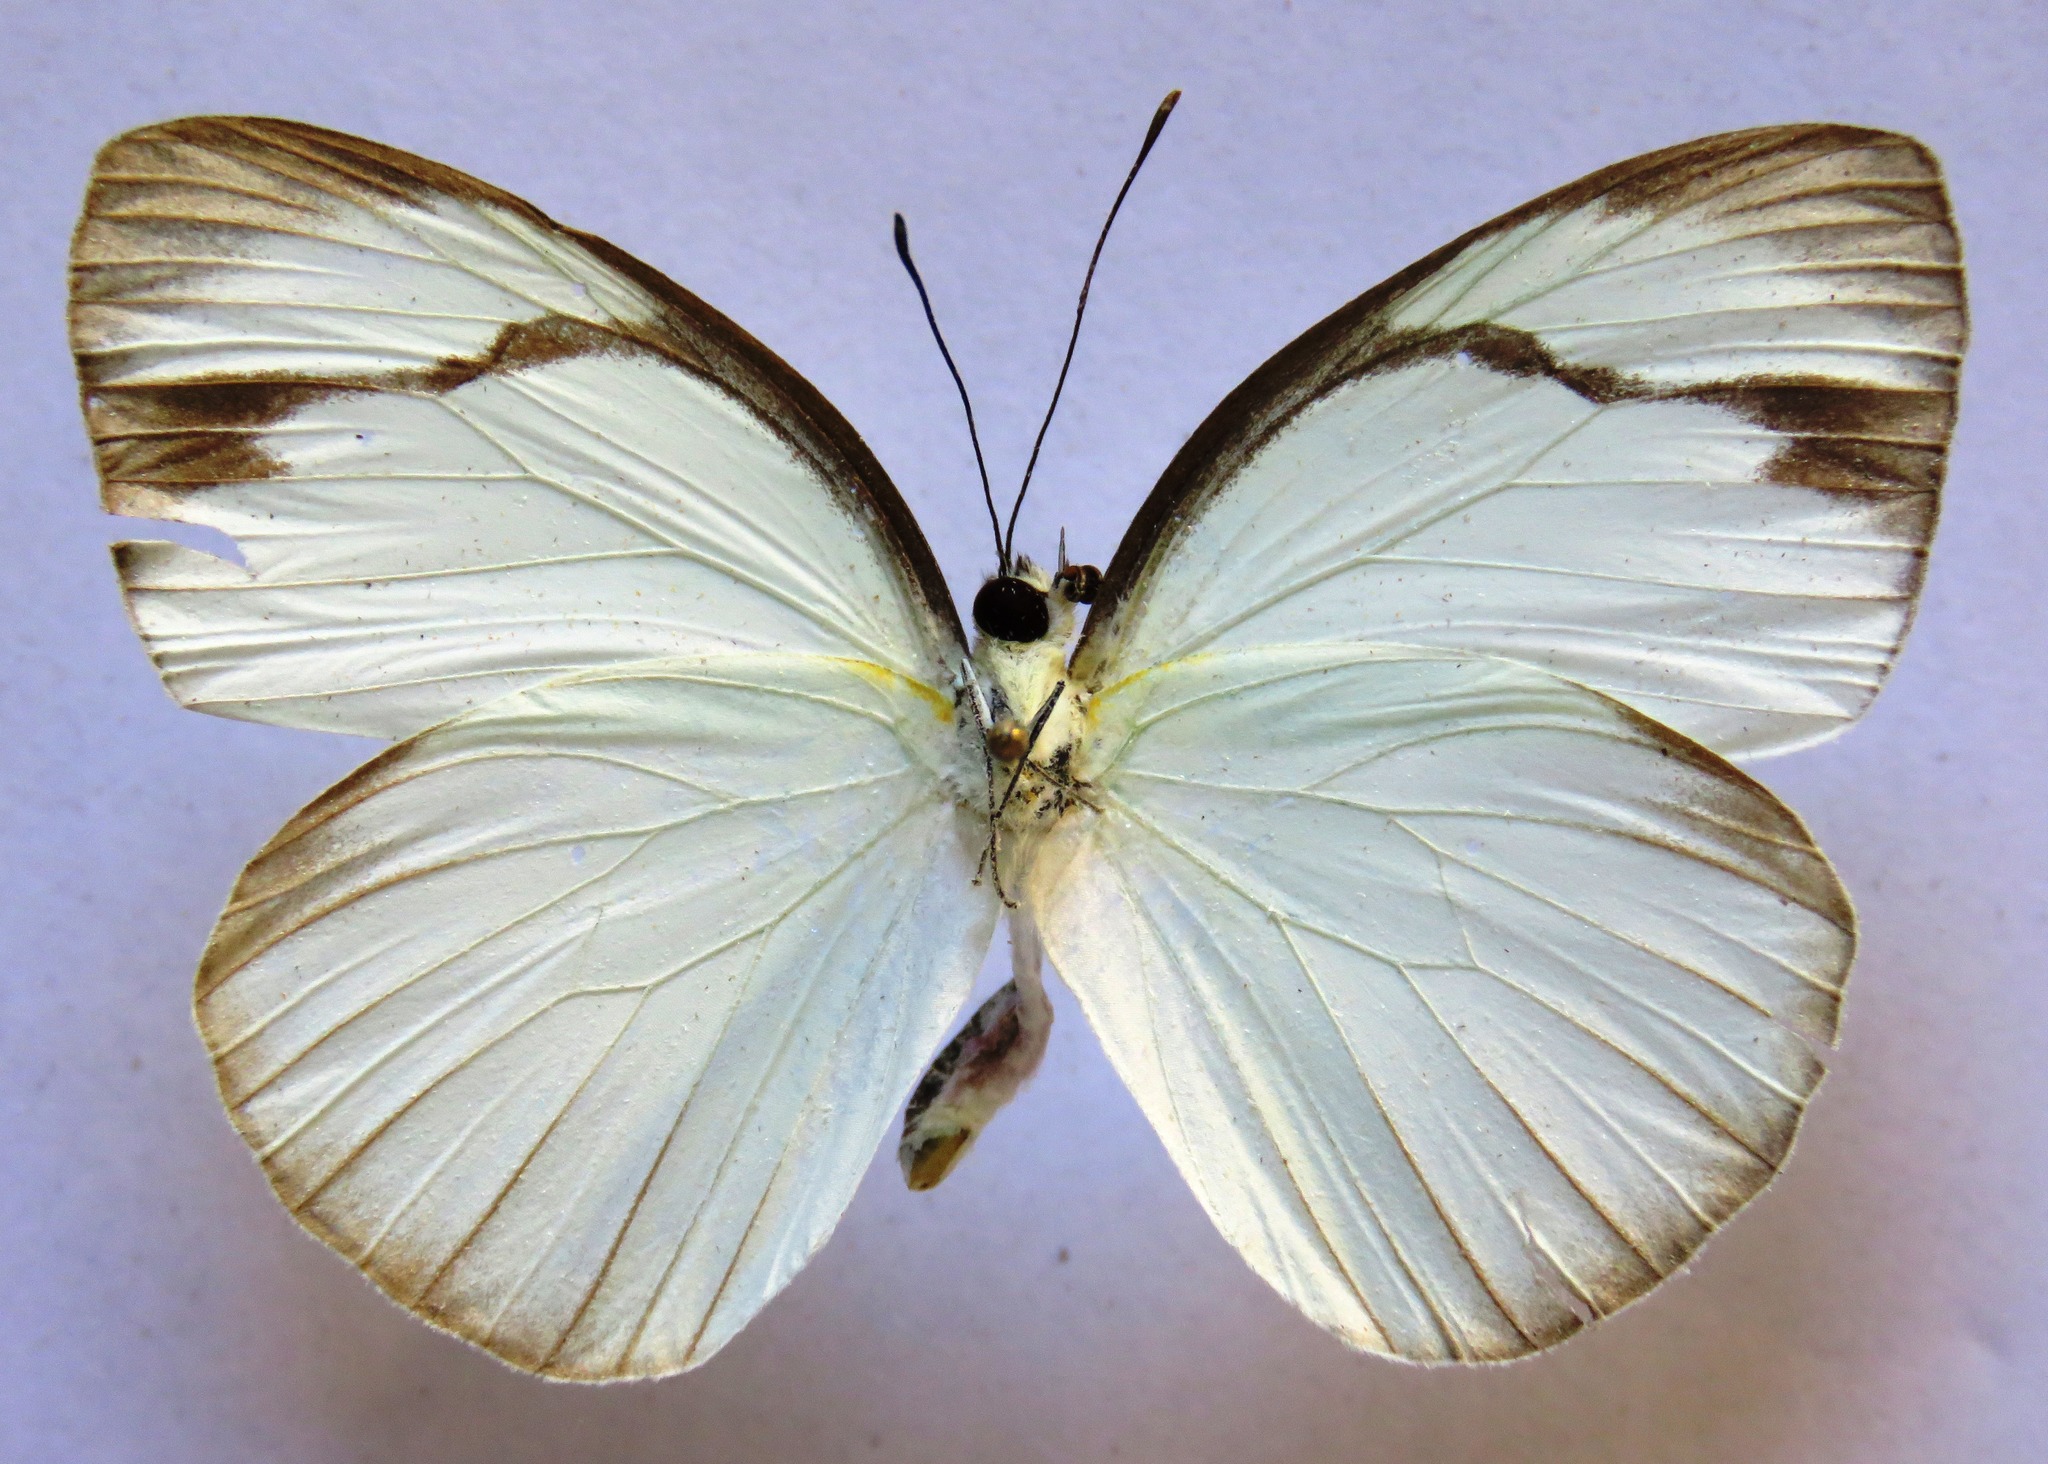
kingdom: Animalia
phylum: Arthropoda
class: Insecta
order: Lepidoptera
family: Pieridae
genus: Itaballia
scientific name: Itaballia demophile
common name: Cross-barred white
